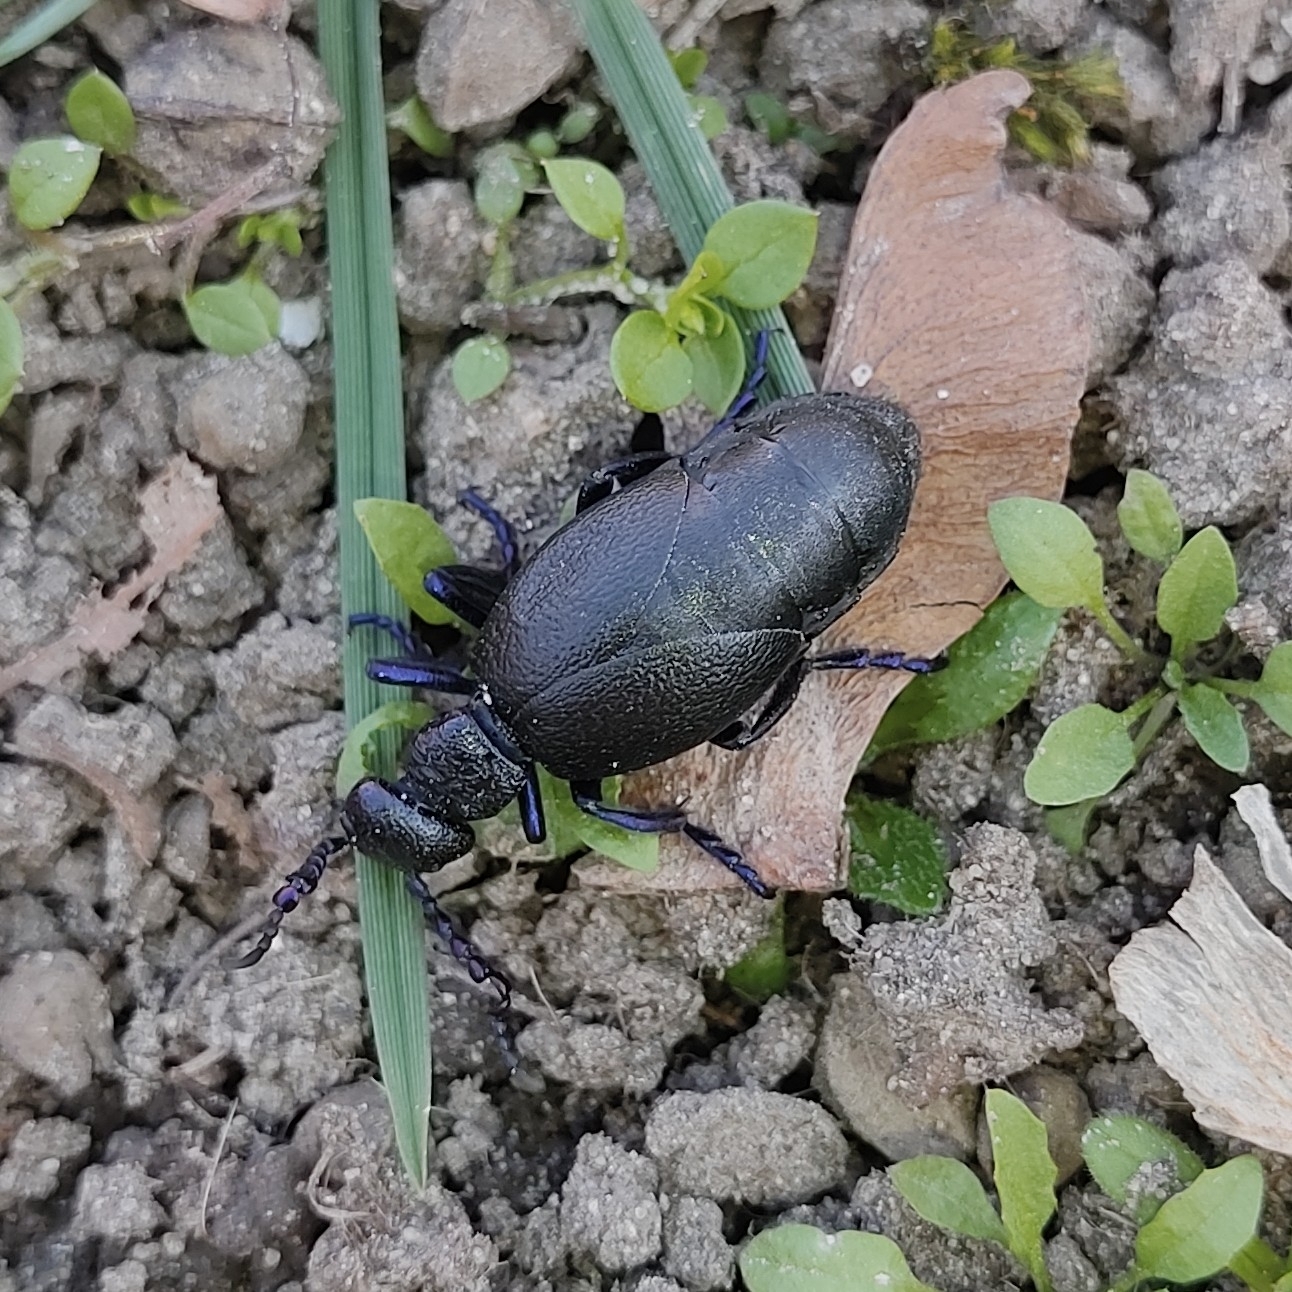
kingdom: Animalia
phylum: Arthropoda
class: Insecta
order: Coleoptera
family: Meloidae
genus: Meloe
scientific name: Meloe proscarabaeus
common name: Black oil-beetle
